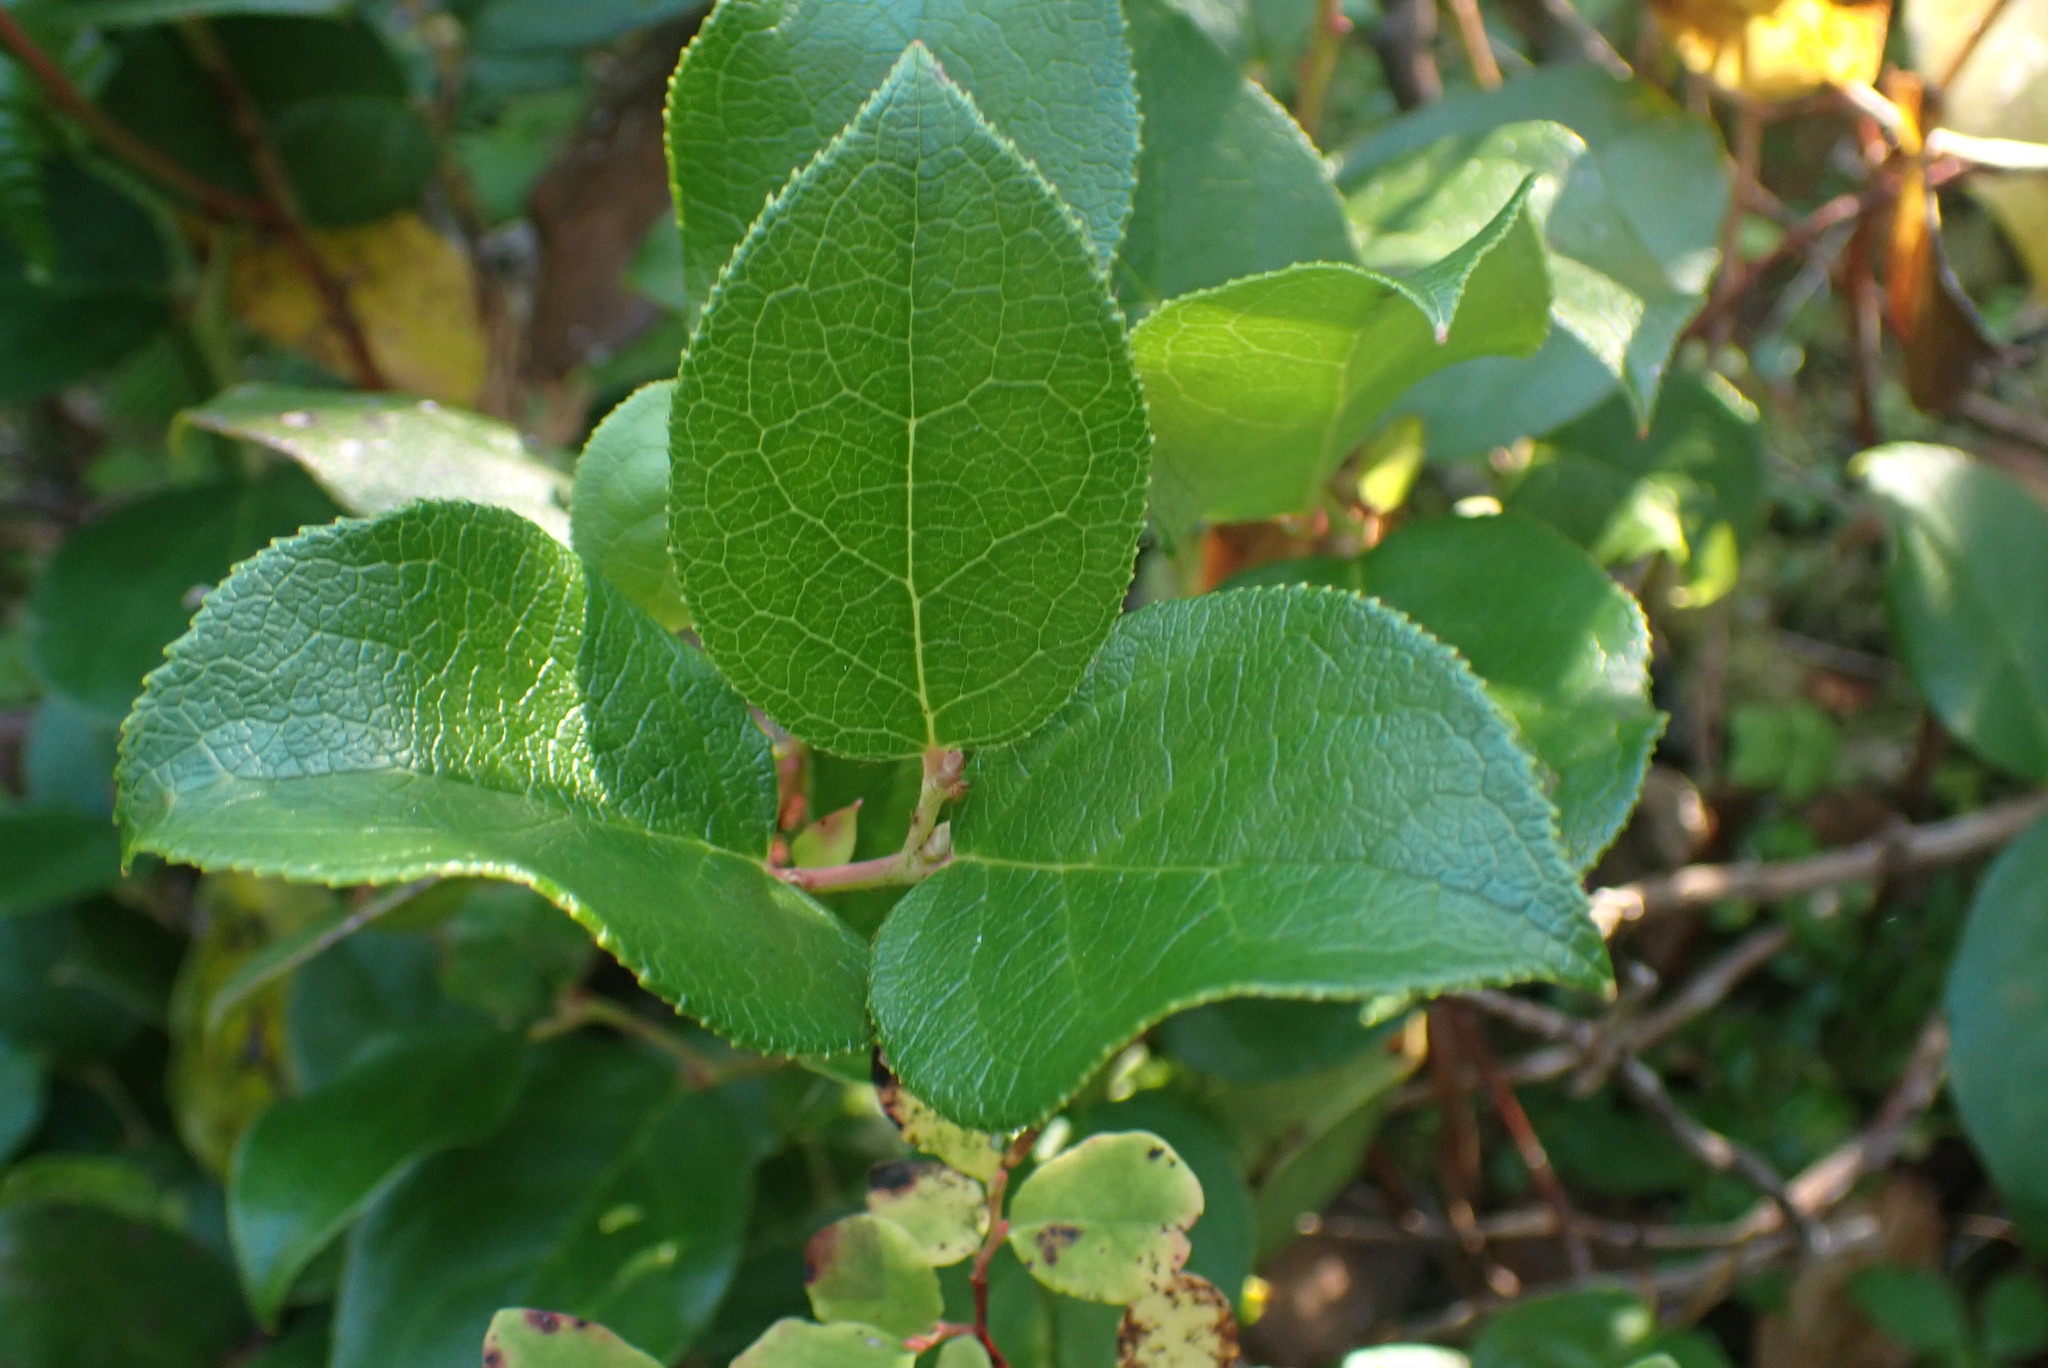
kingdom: Plantae
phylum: Tracheophyta
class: Magnoliopsida
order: Ericales
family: Ericaceae
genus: Gaultheria
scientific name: Gaultheria shallon
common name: Shallon
